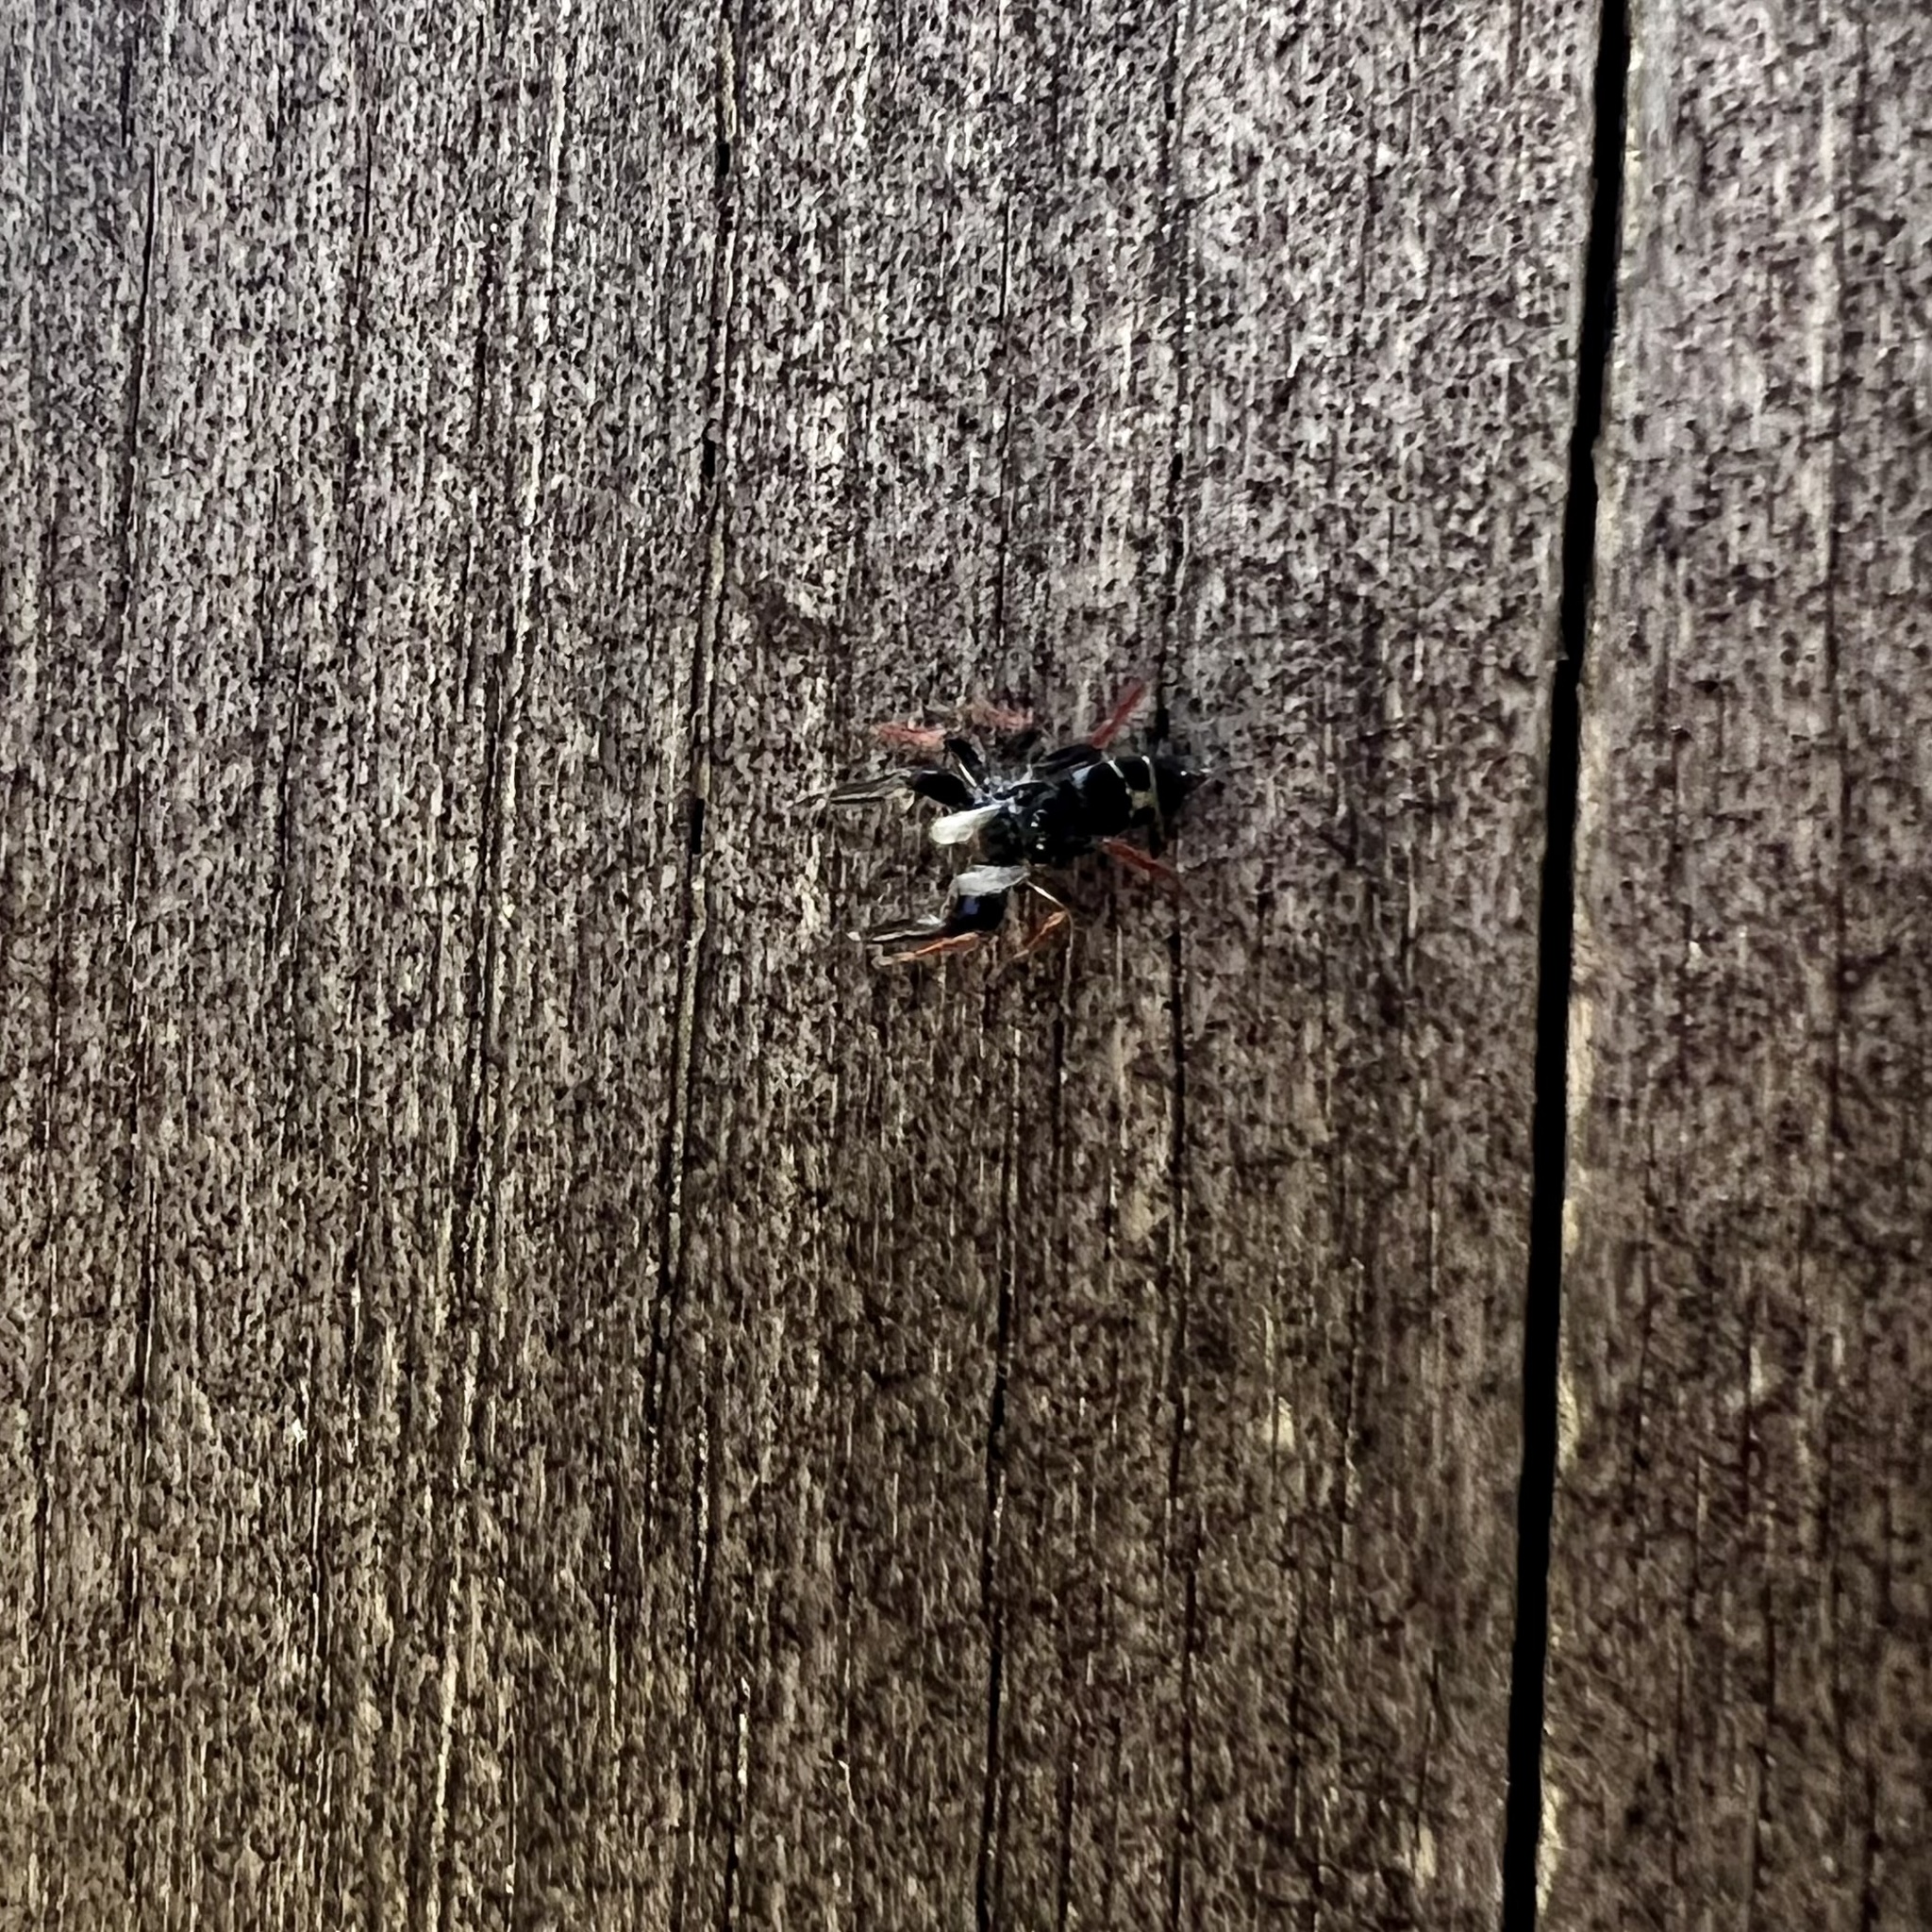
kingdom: Animalia
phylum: Arthropoda
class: Arachnida
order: Araneae
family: Salticidae
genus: Apricia
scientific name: Apricia jovialis
